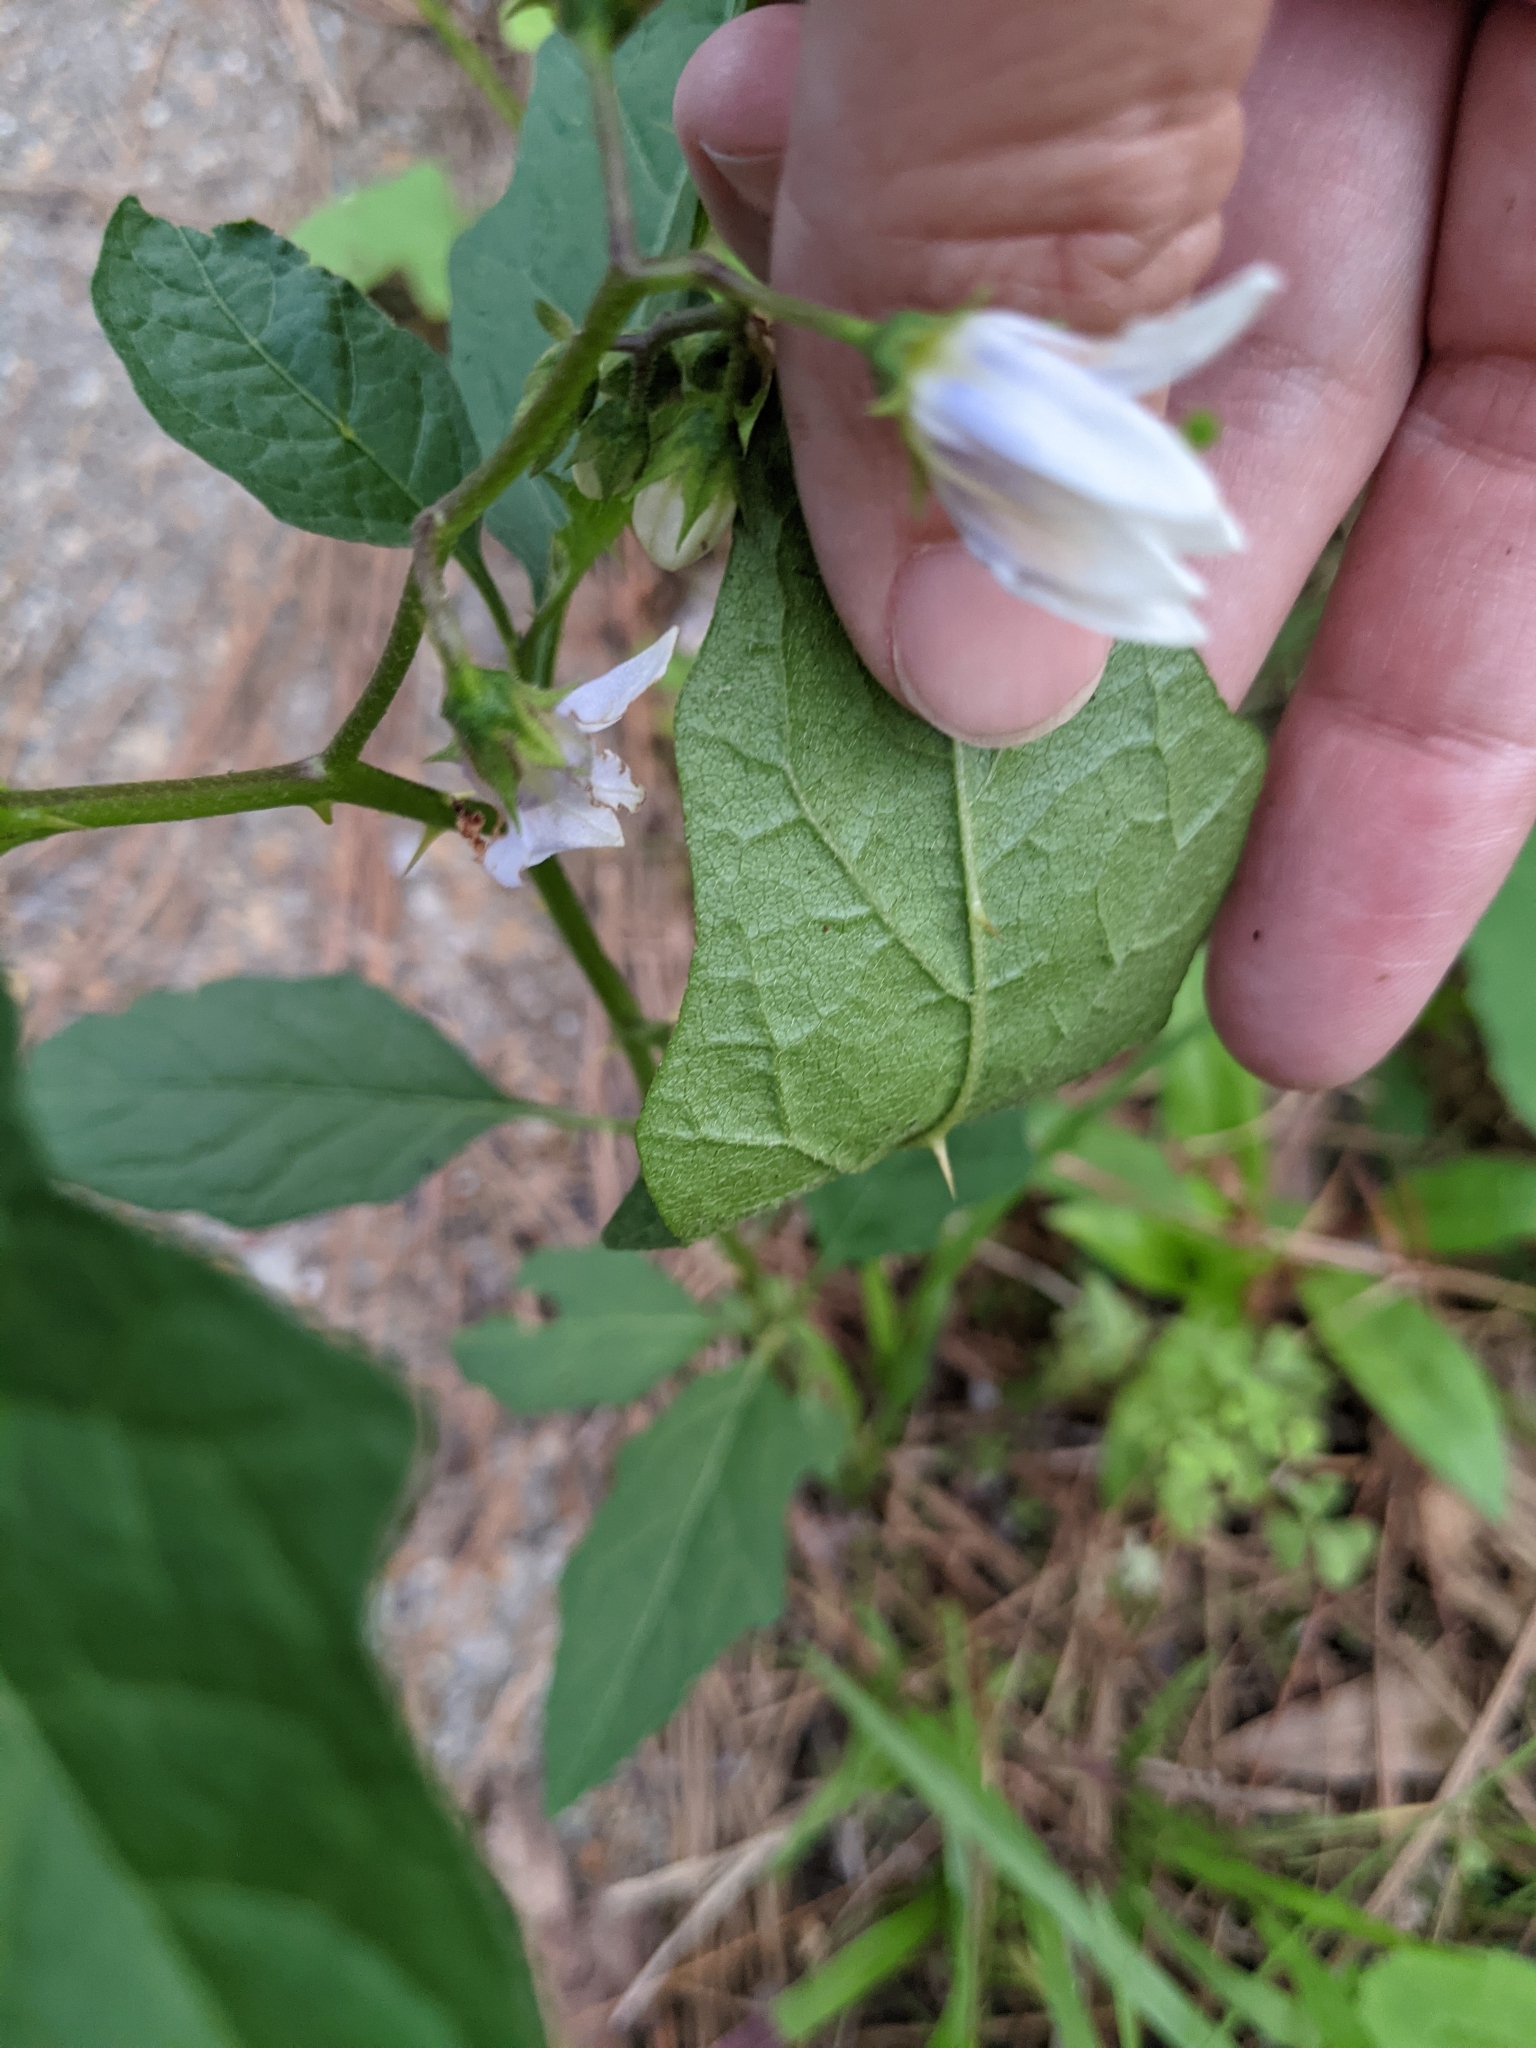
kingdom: Plantae
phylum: Tracheophyta
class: Magnoliopsida
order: Solanales
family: Solanaceae
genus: Solanum
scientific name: Solanum carolinense
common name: Horse-nettle
